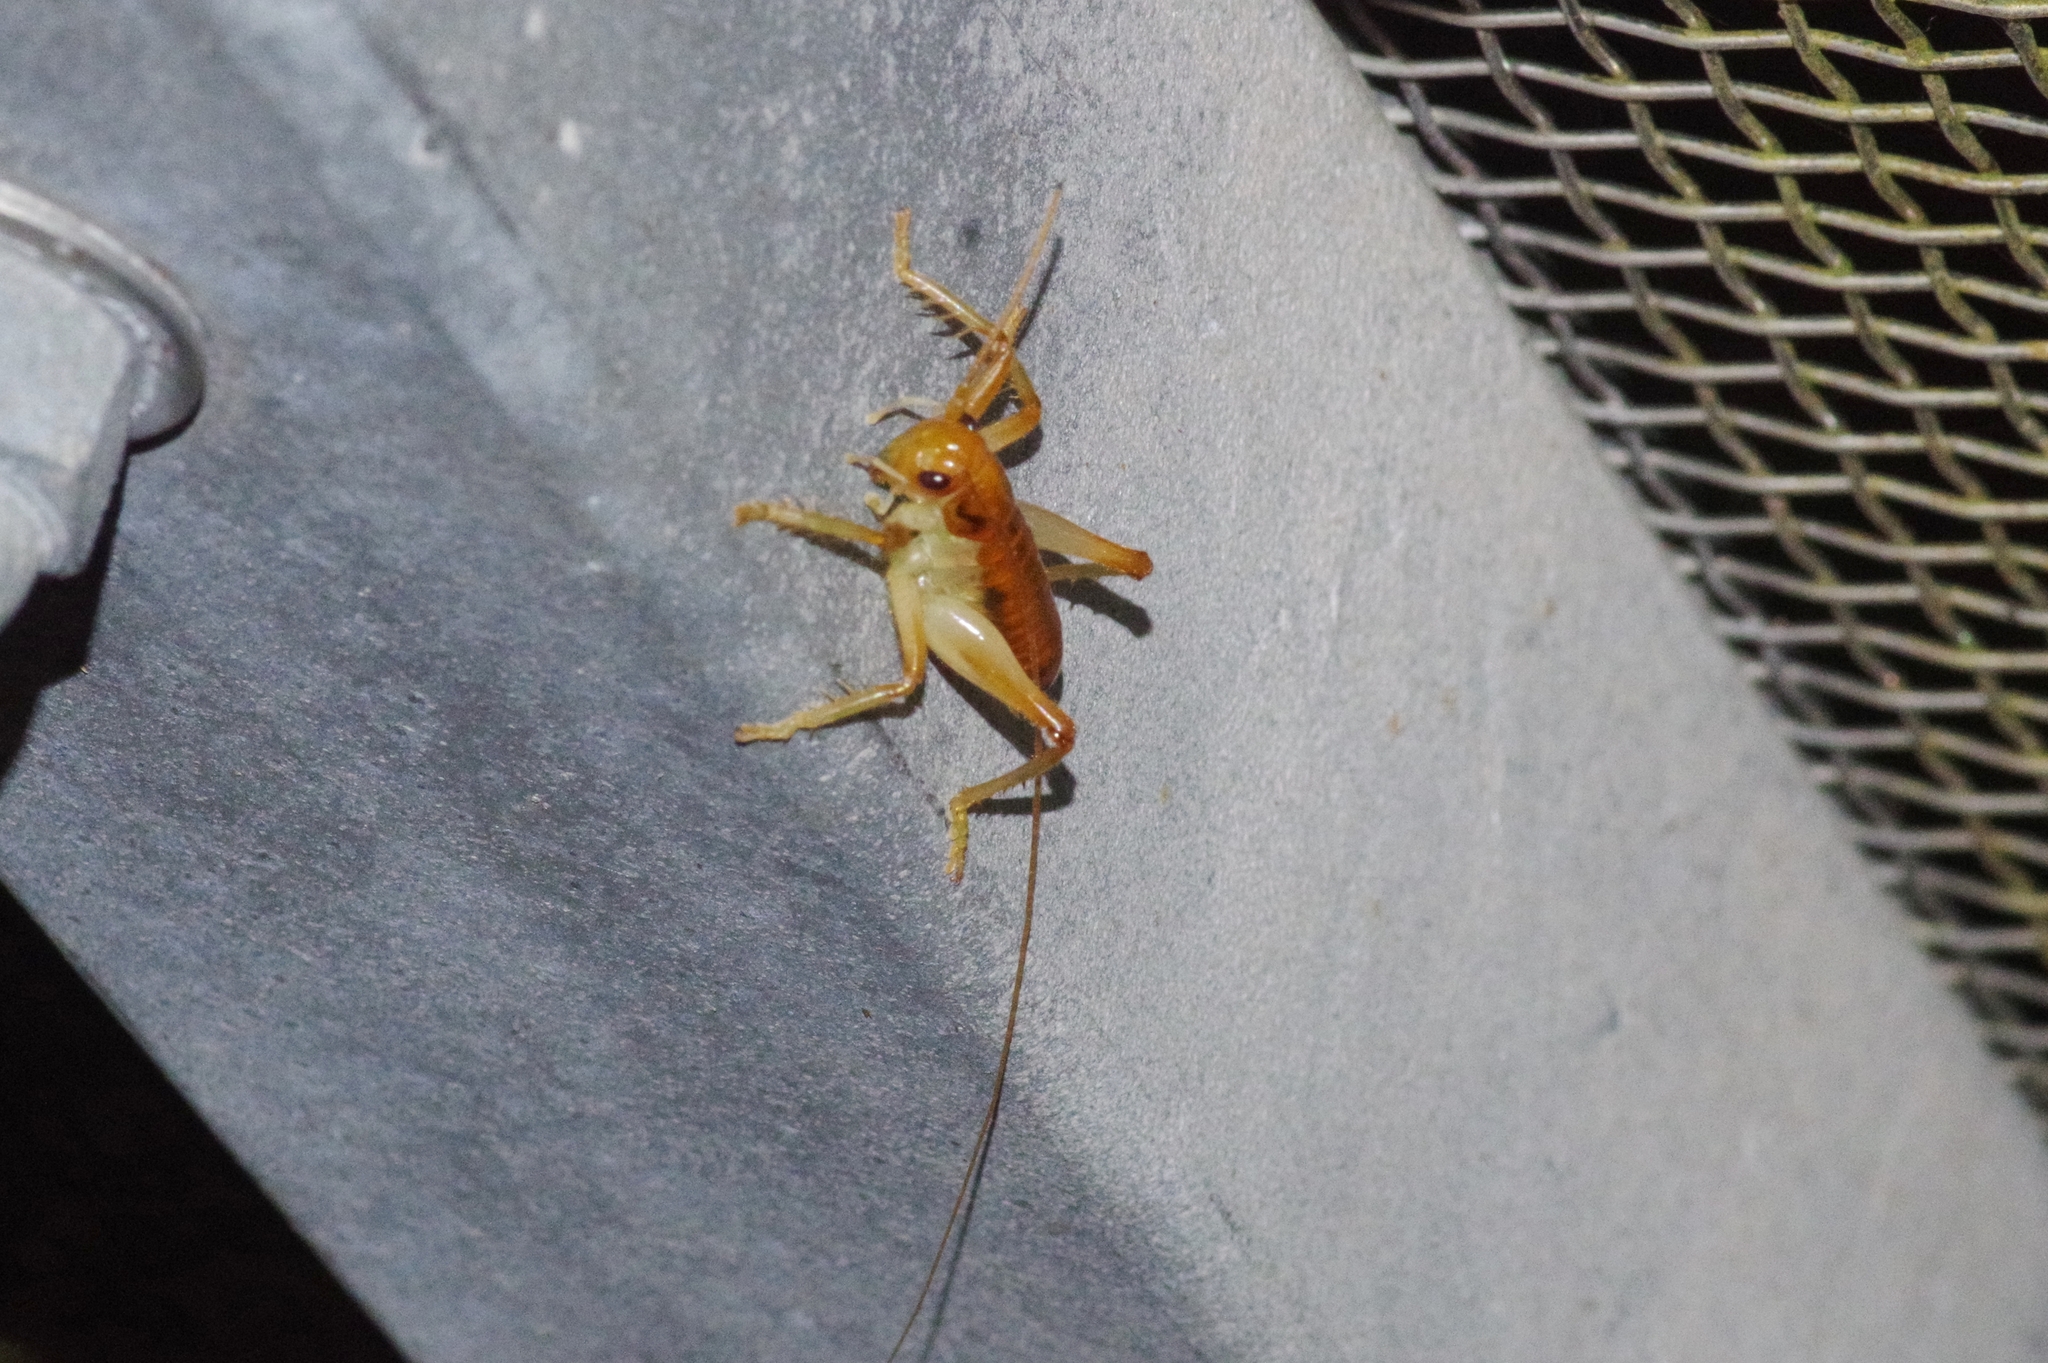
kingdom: Animalia
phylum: Arthropoda
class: Insecta
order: Orthoptera
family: Gryllacrididae
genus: Nippancistroger
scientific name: Nippancistroger testaceus
